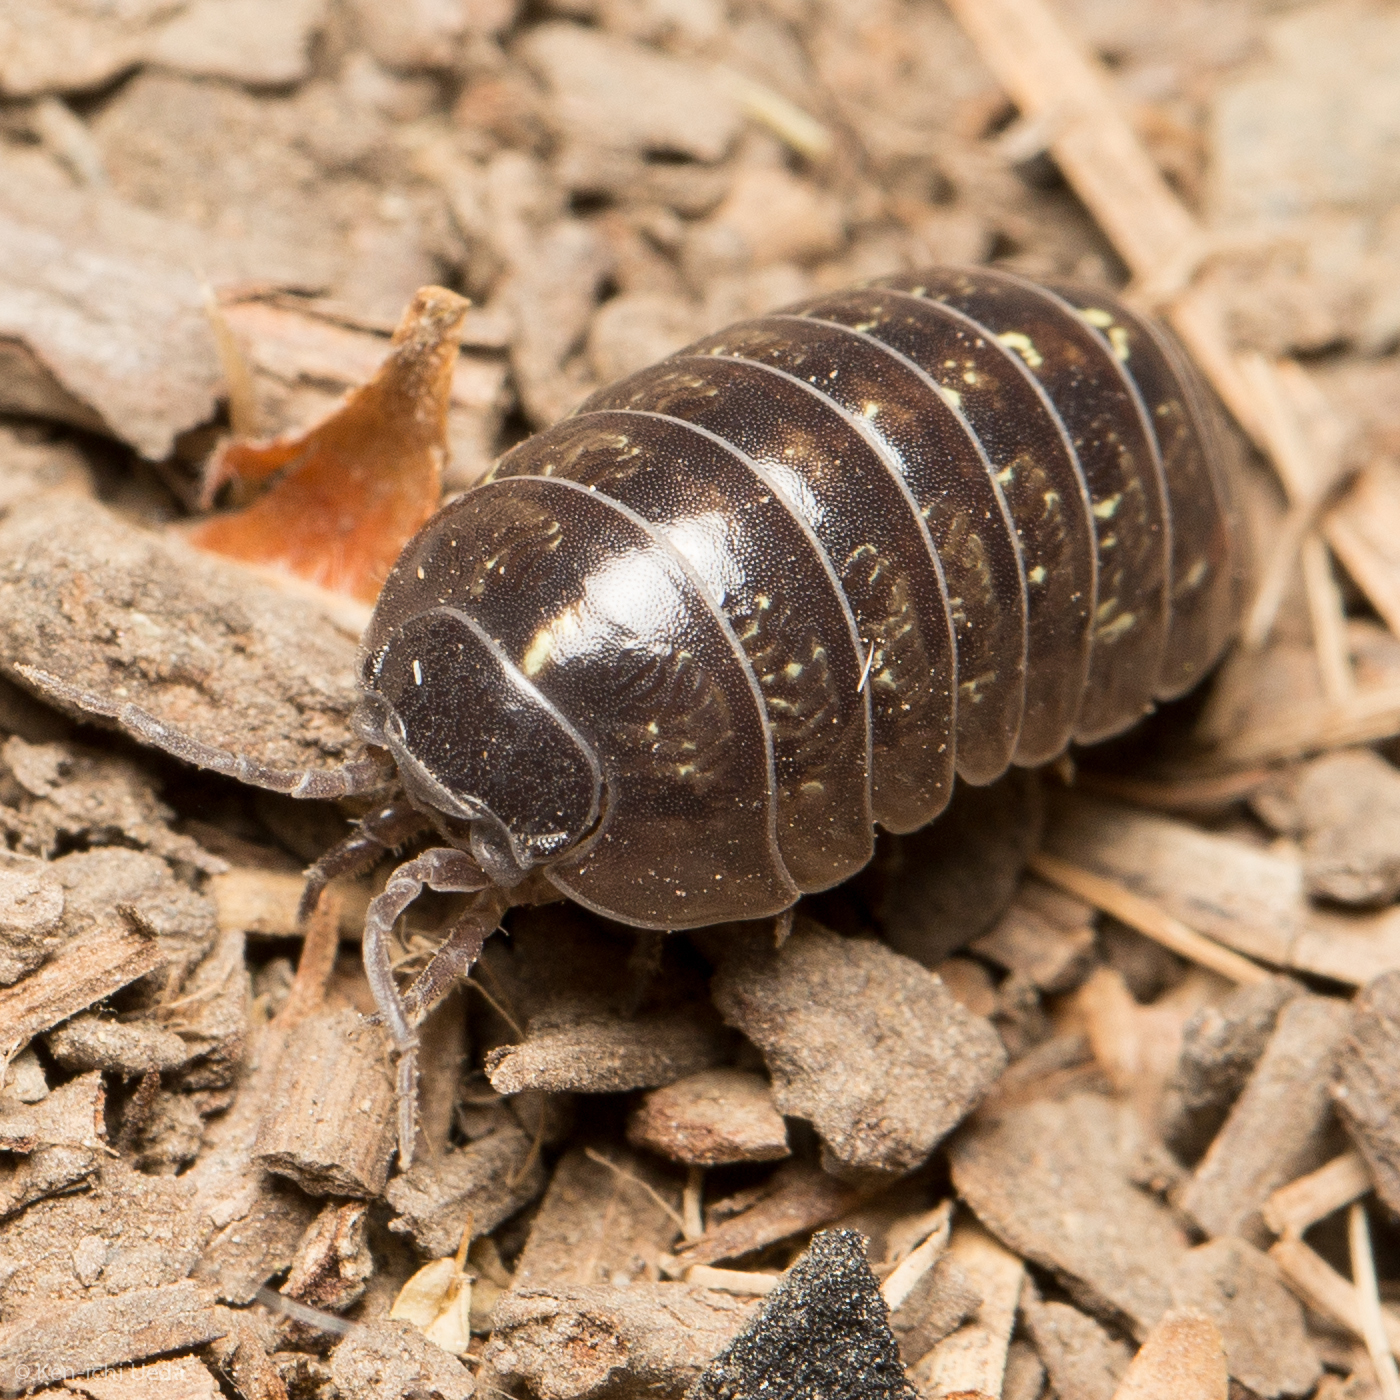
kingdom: Animalia
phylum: Arthropoda
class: Malacostraca
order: Isopoda
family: Armadillidiidae
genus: Armadillidium
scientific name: Armadillidium vulgare
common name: Common pill woodlouse
